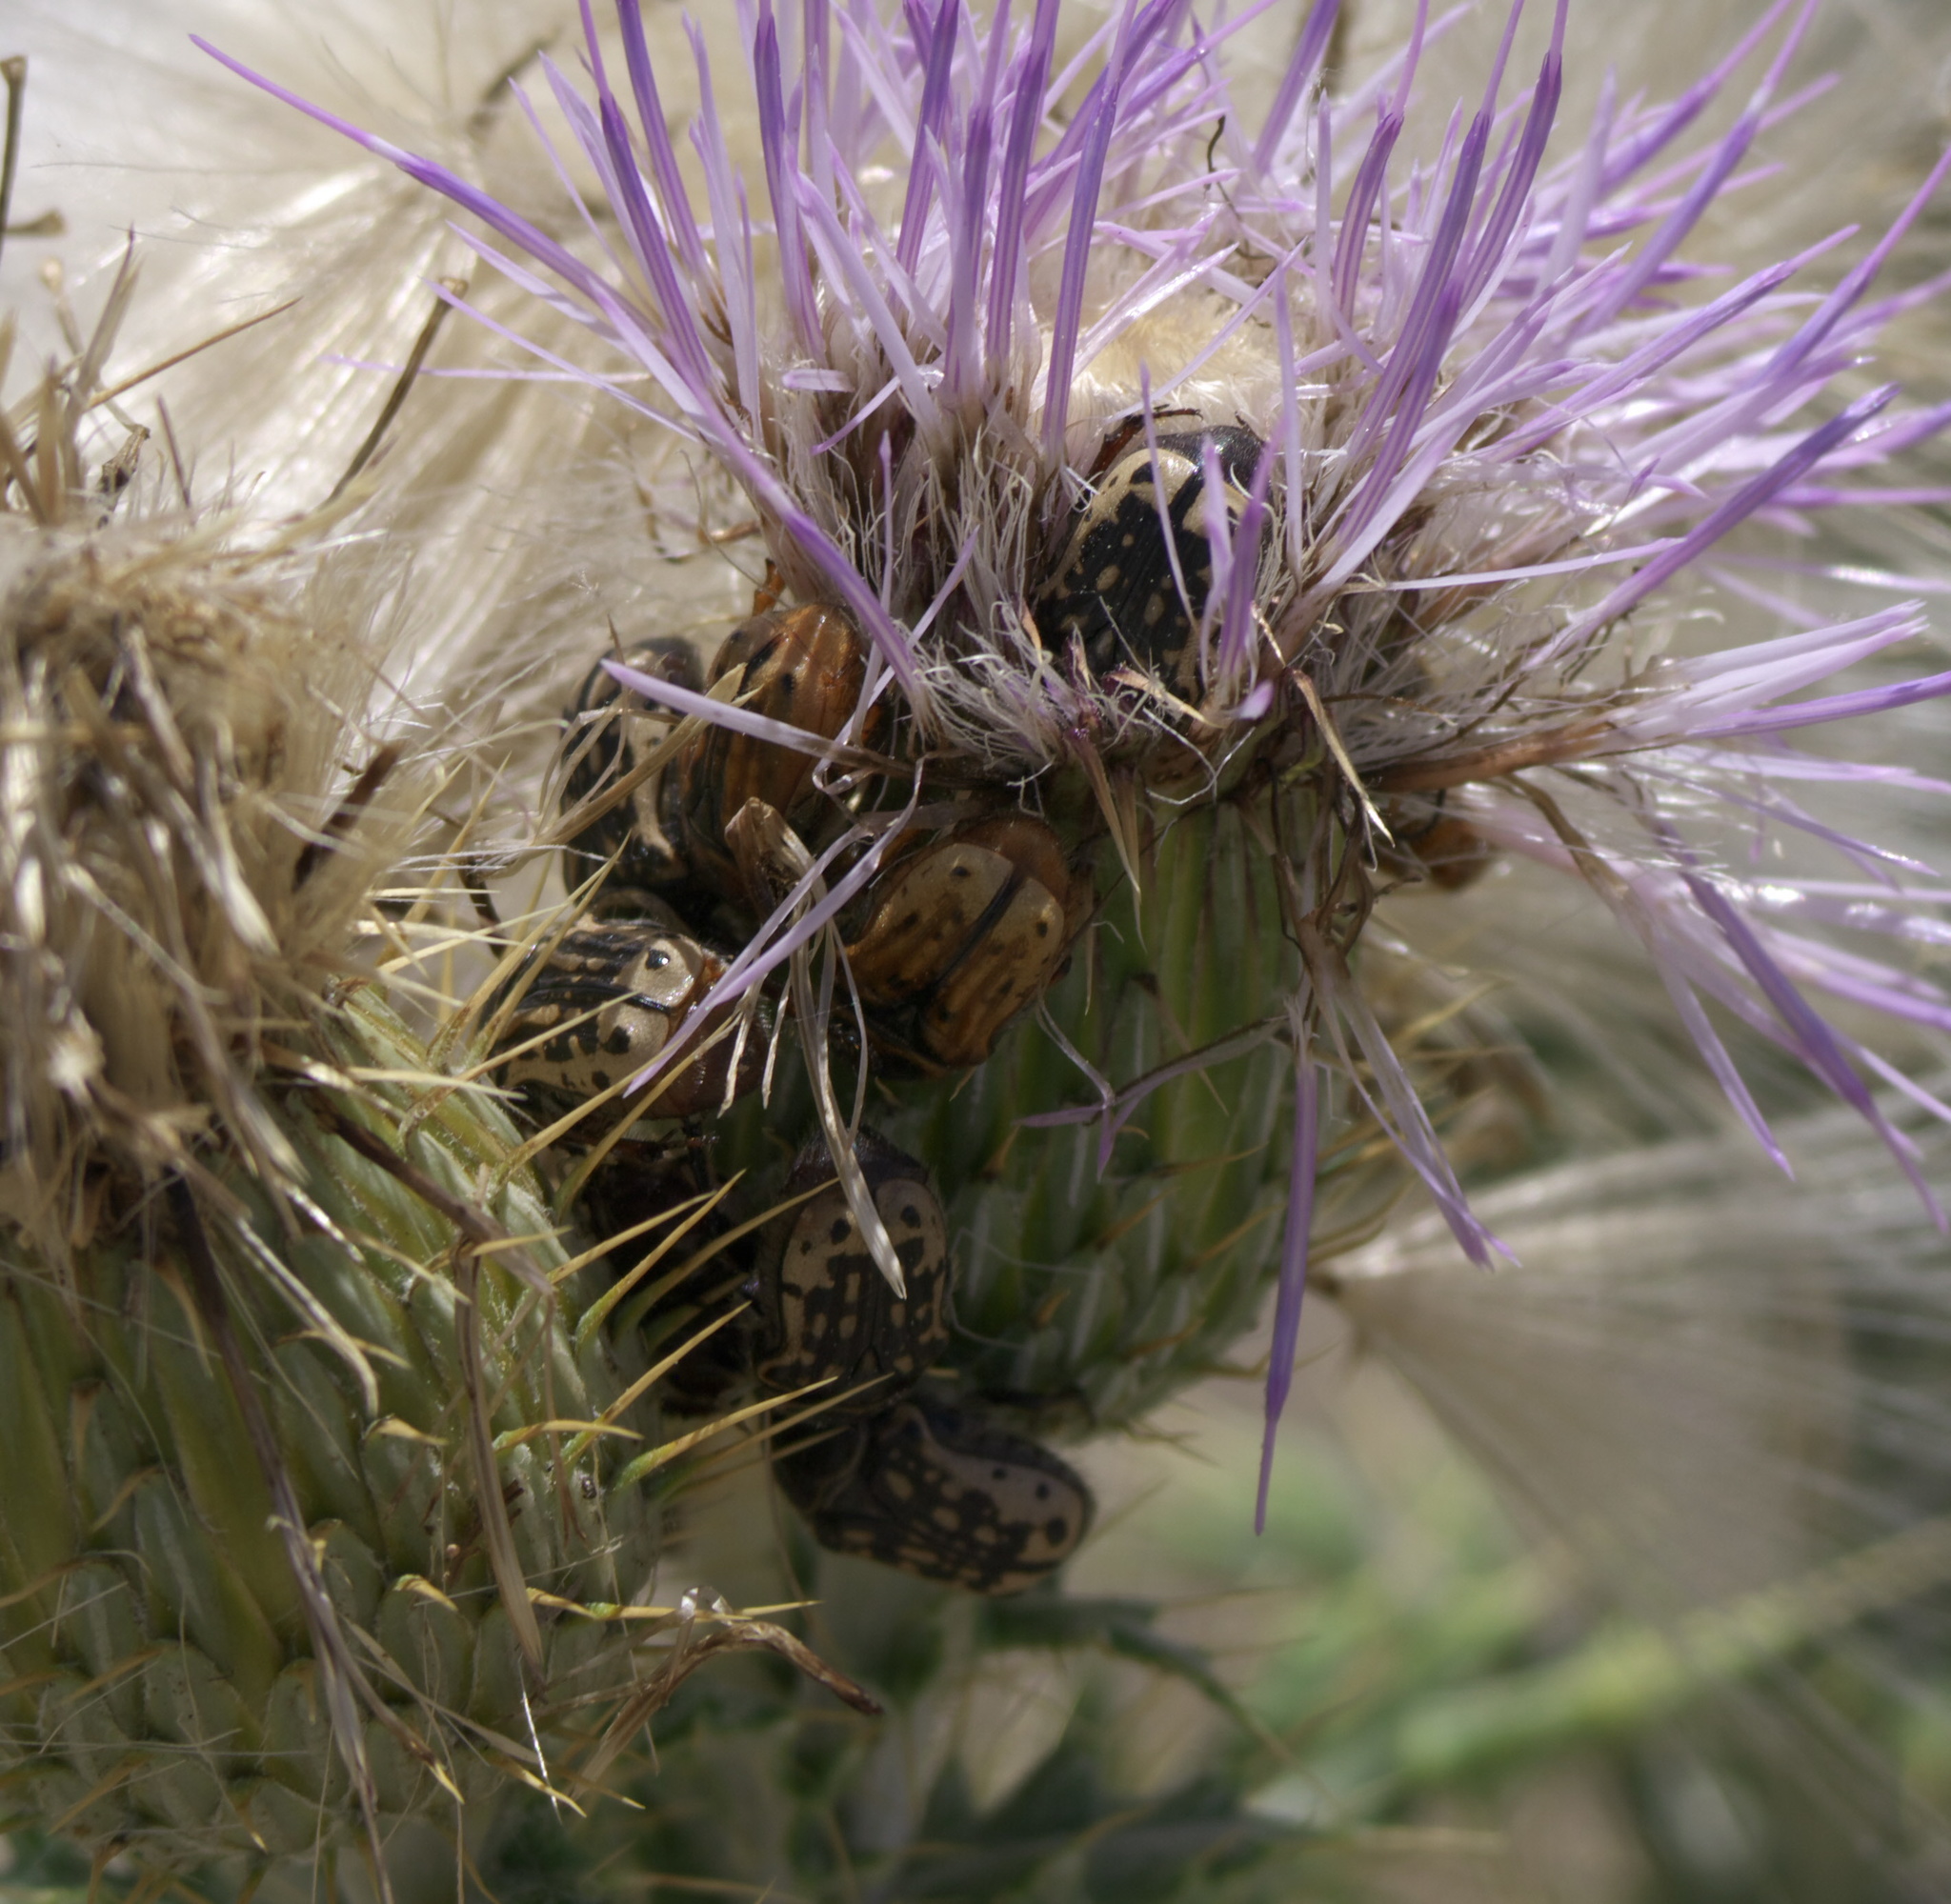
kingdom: Animalia
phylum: Arthropoda
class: Insecta
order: Coleoptera
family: Scarabaeidae
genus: Euphoria
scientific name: Euphoria kernii
